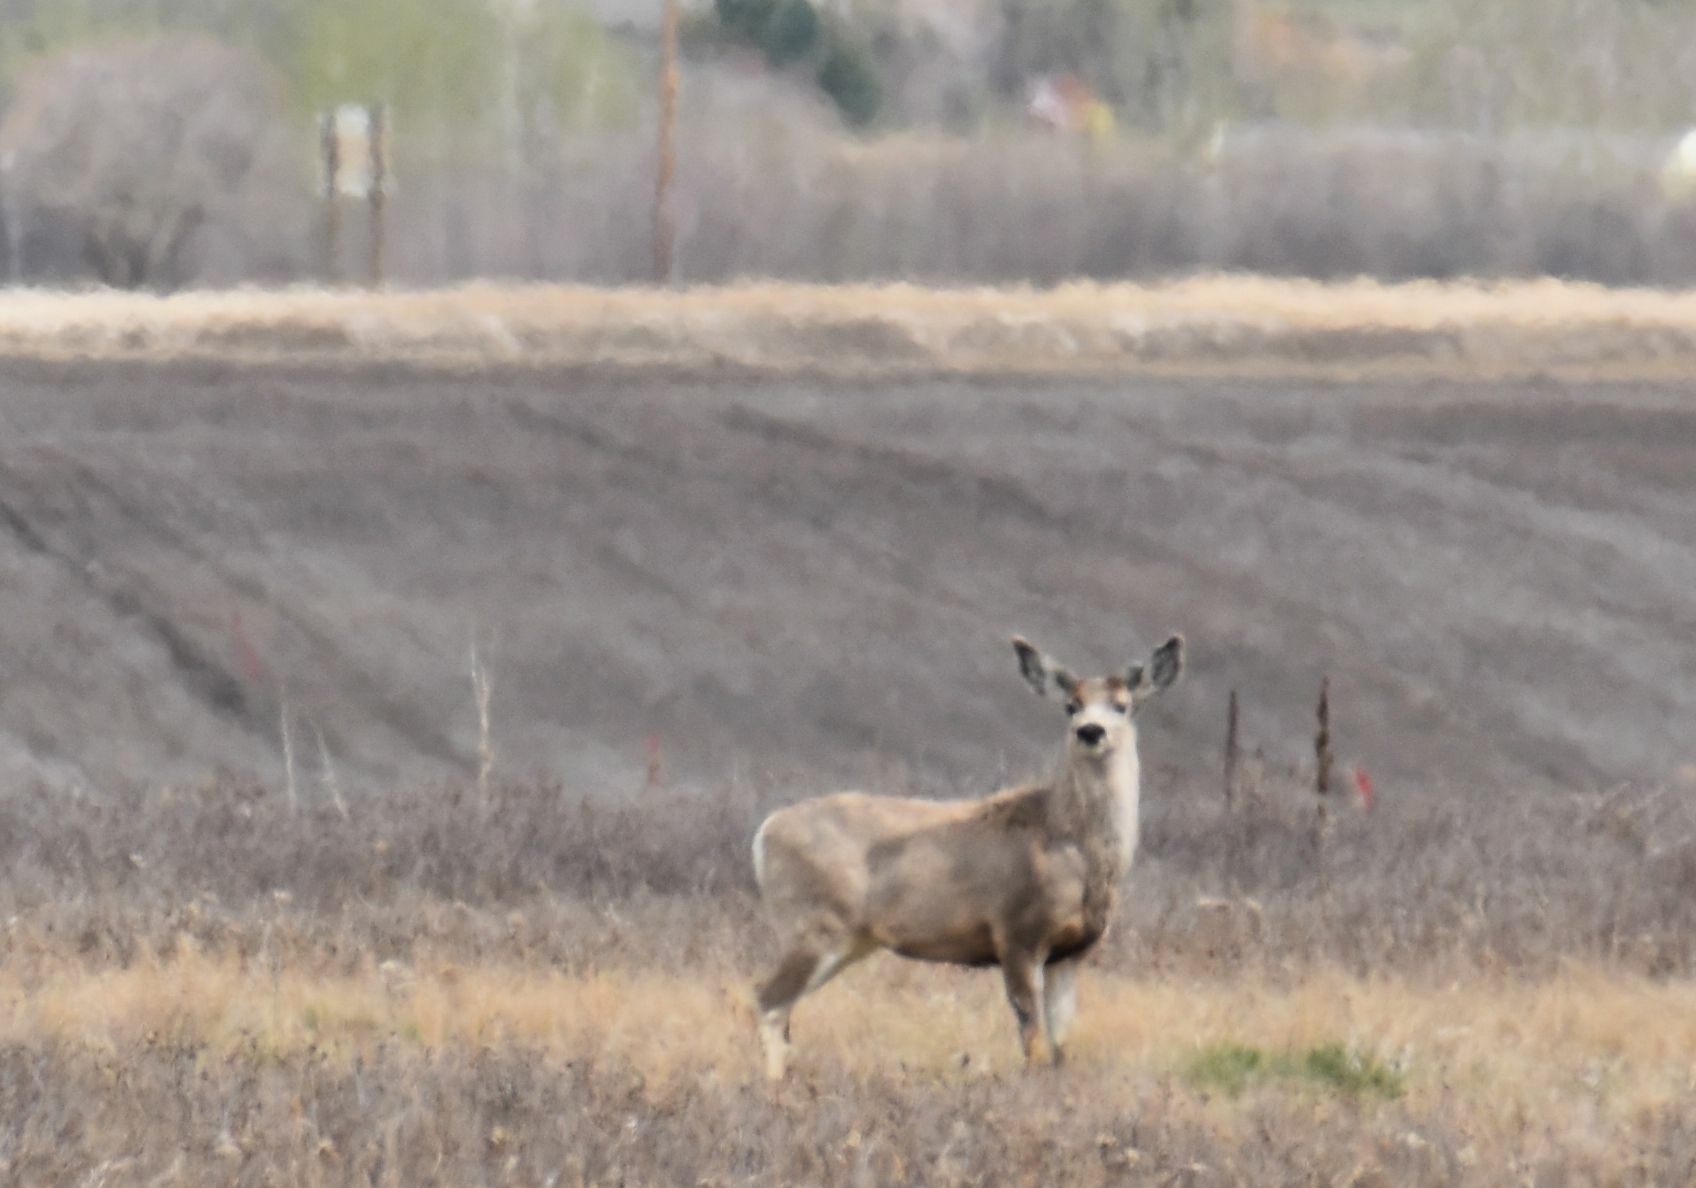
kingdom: Animalia
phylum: Chordata
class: Mammalia
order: Artiodactyla
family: Cervidae
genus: Odocoileus
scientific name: Odocoileus hemionus
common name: Mule deer
